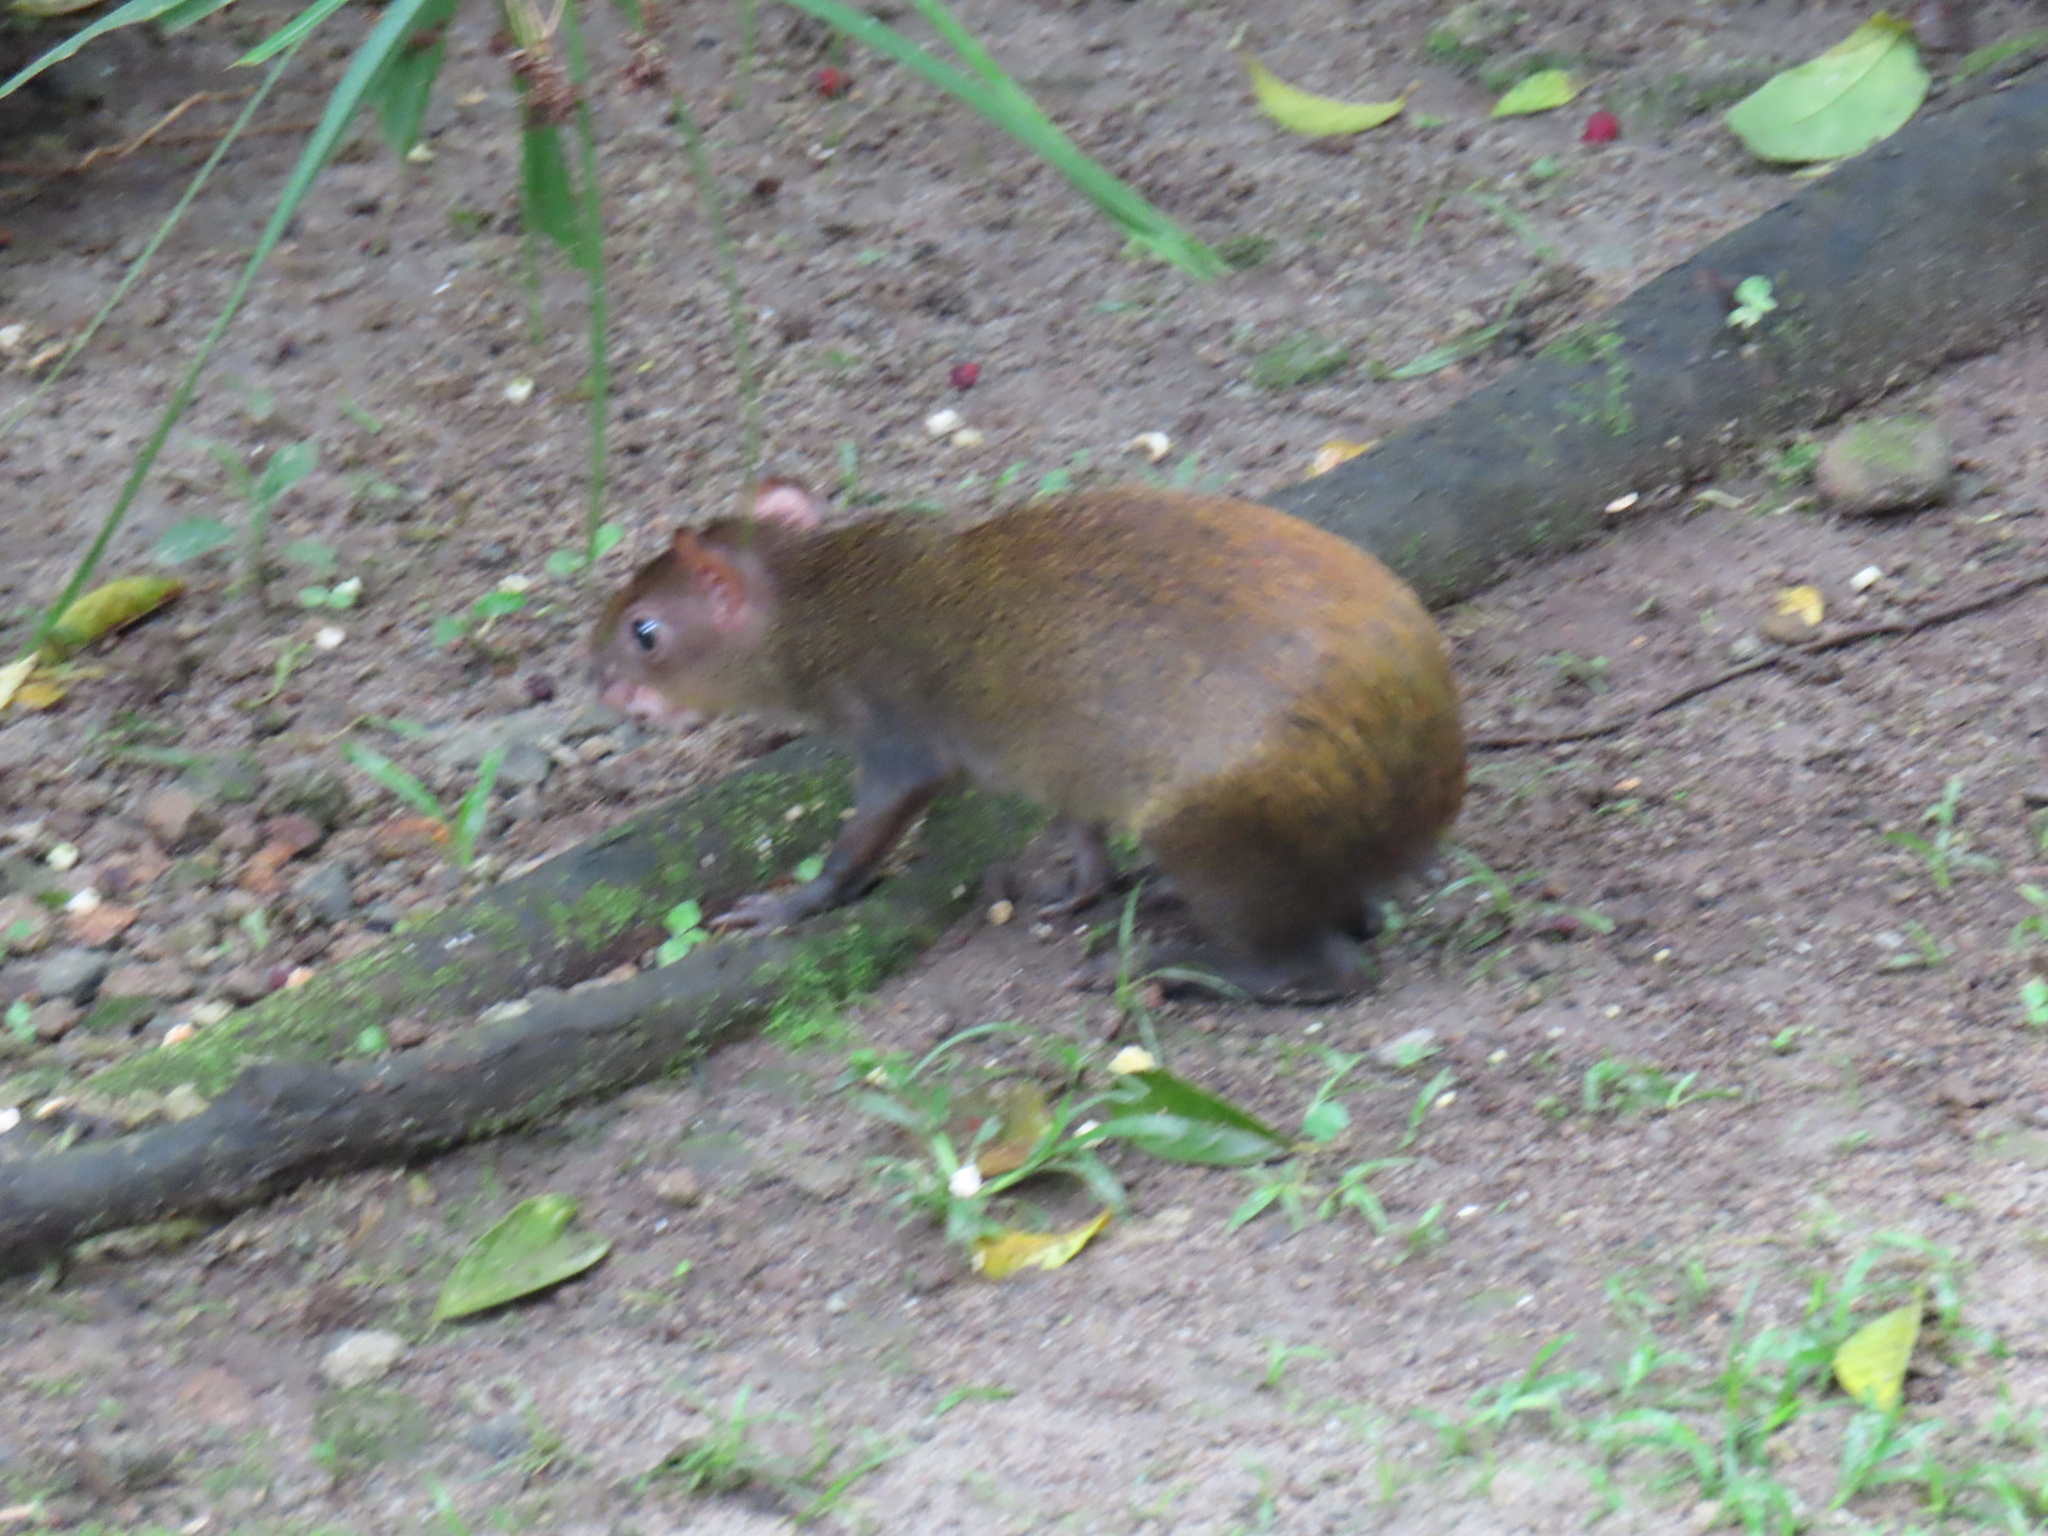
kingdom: Animalia
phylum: Chordata
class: Mammalia
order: Rodentia
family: Dasyproctidae
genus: Dasyprocta
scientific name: Dasyprocta punctata
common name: Central american agouti
